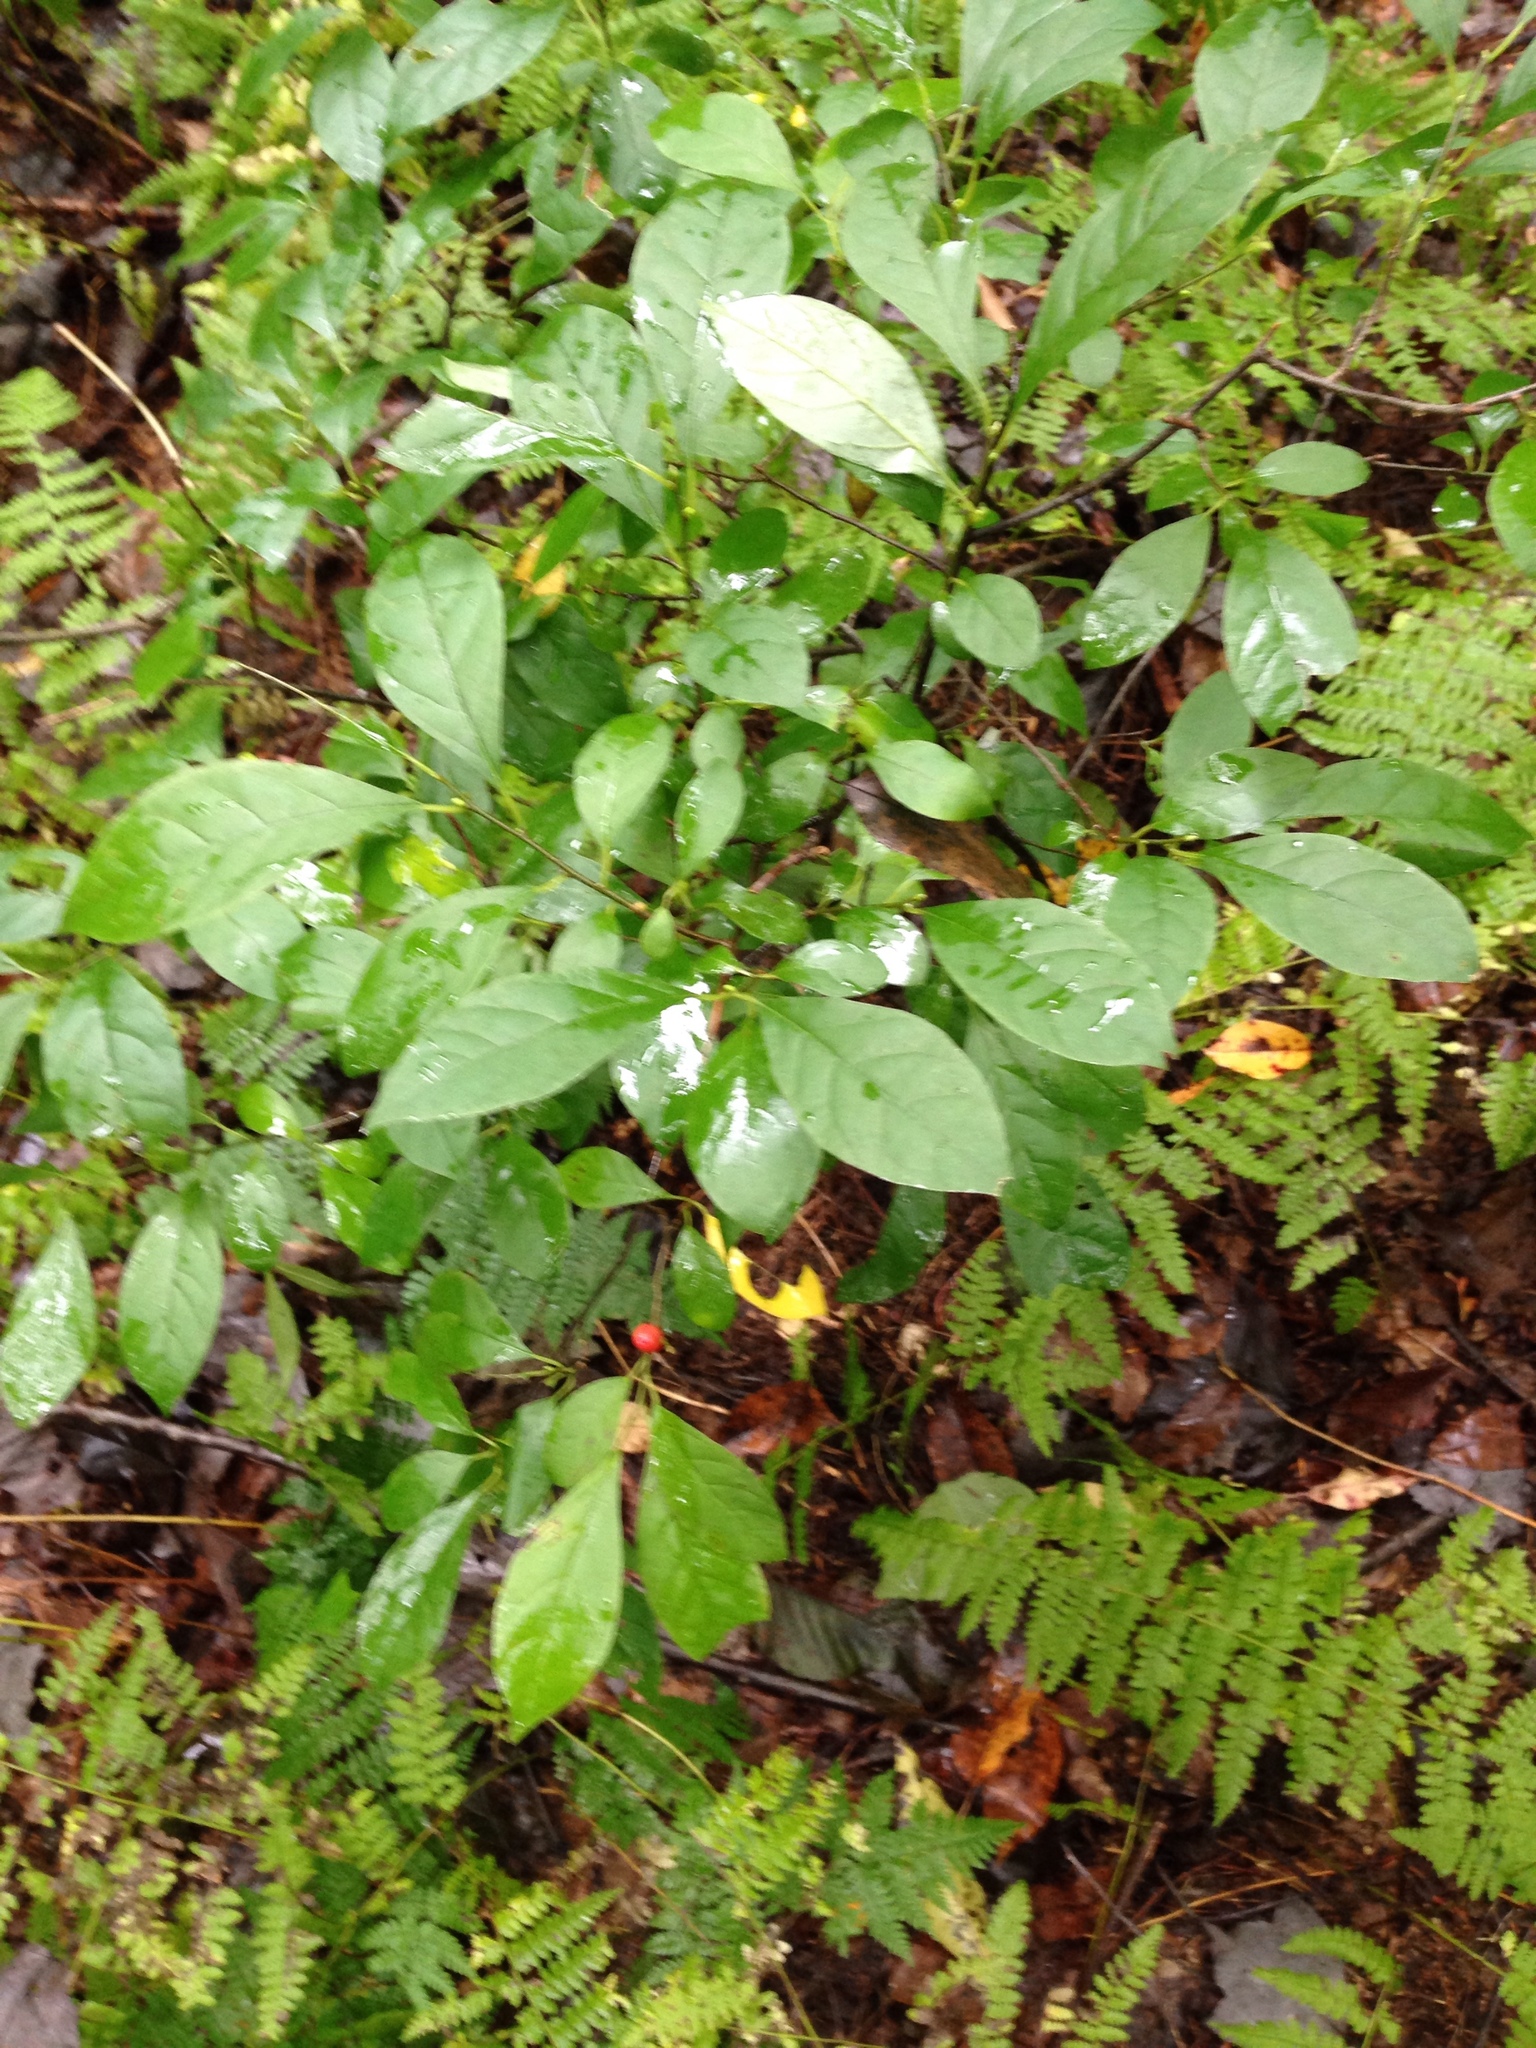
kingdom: Plantae
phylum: Tracheophyta
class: Magnoliopsida
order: Laurales
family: Lauraceae
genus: Lindera
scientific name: Lindera benzoin
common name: Spicebush
